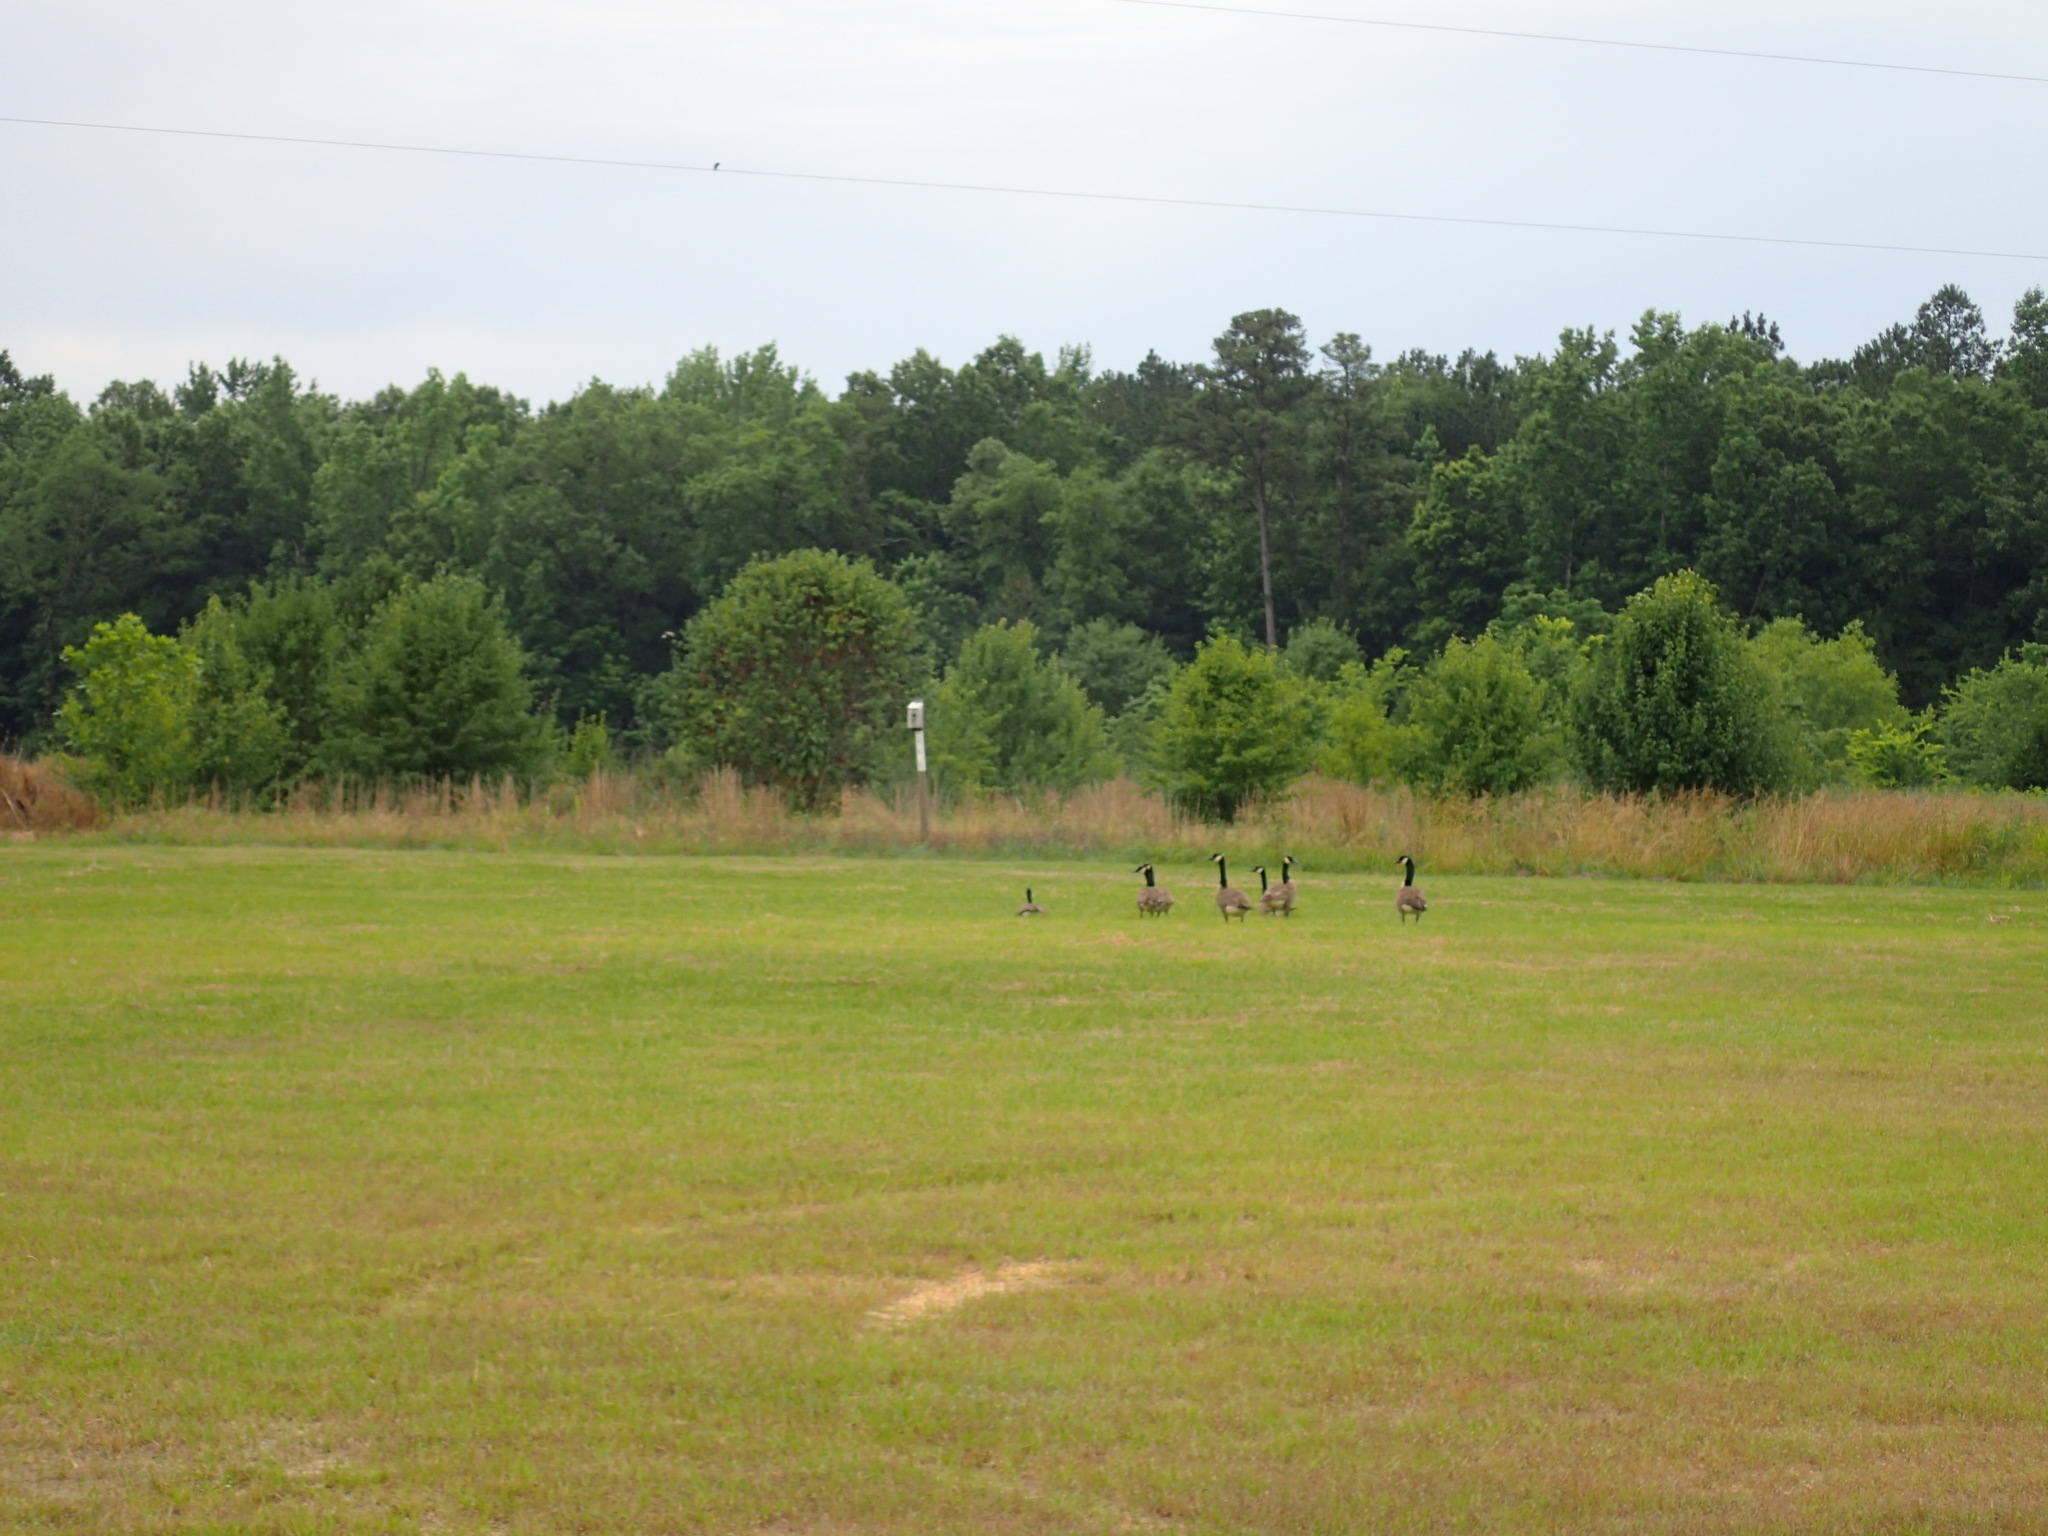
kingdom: Animalia
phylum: Chordata
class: Aves
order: Anseriformes
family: Anatidae
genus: Branta
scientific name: Branta canadensis
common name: Canada goose
